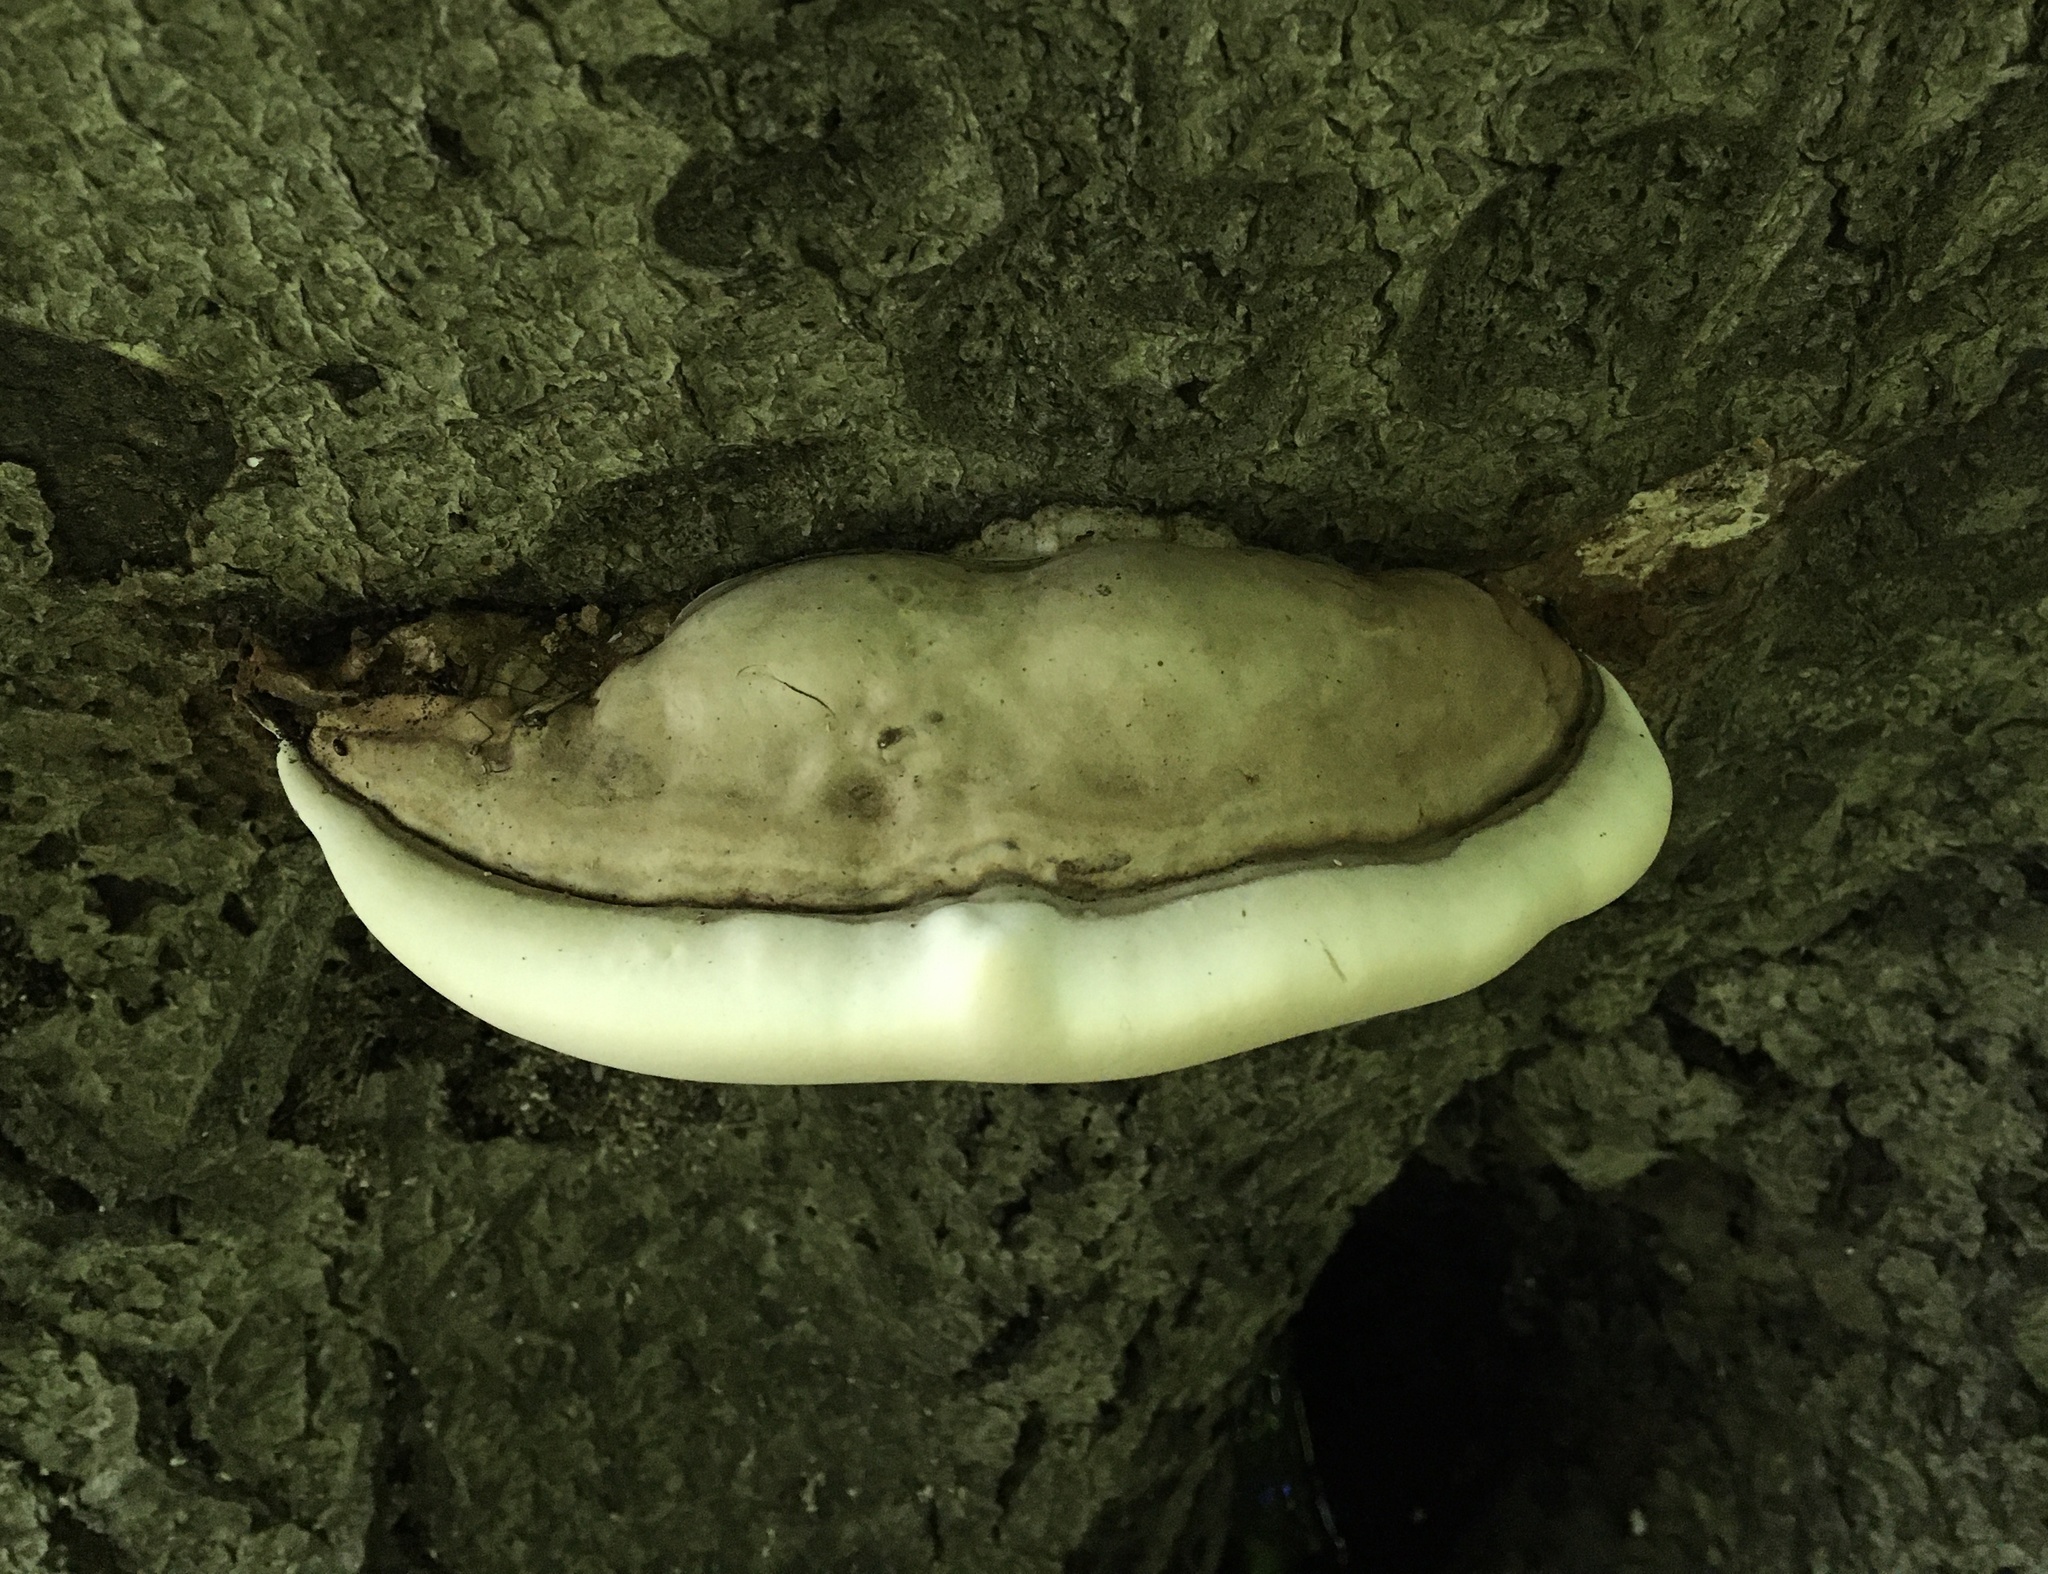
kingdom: Fungi
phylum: Basidiomycota
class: Agaricomycetes
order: Polyporales
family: Polyporaceae
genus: Ganoderma
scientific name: Ganoderma lobatum
